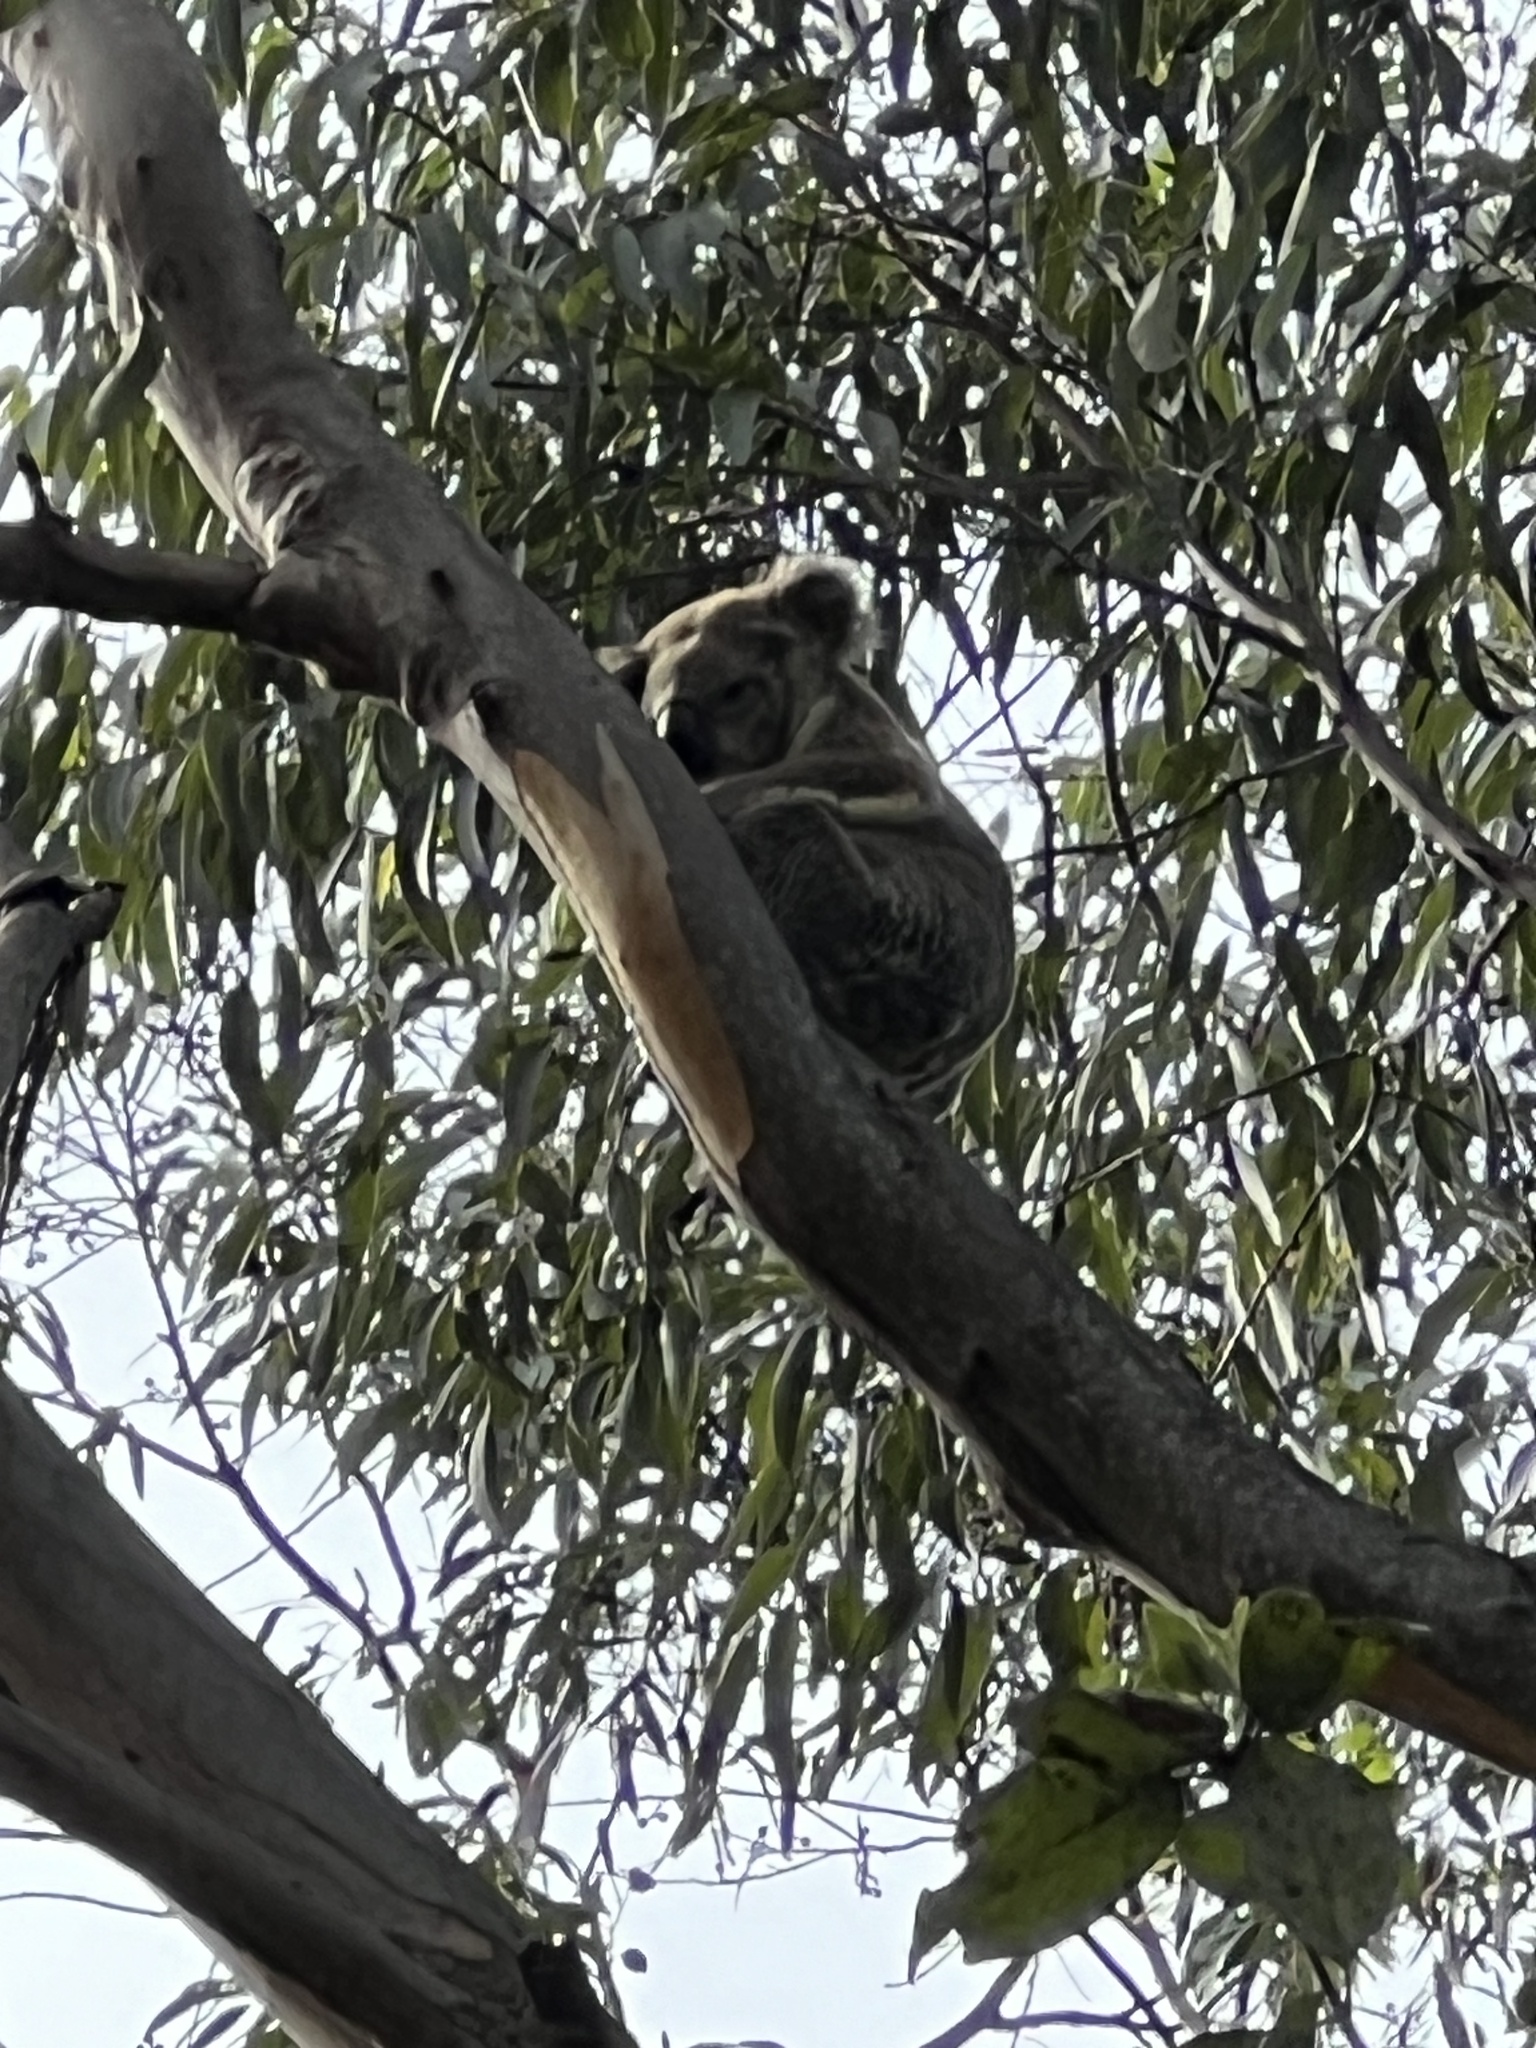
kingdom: Animalia
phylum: Chordata
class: Mammalia
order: Diprotodontia
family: Phascolarctidae
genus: Phascolarctos
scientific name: Phascolarctos cinereus
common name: Koala
